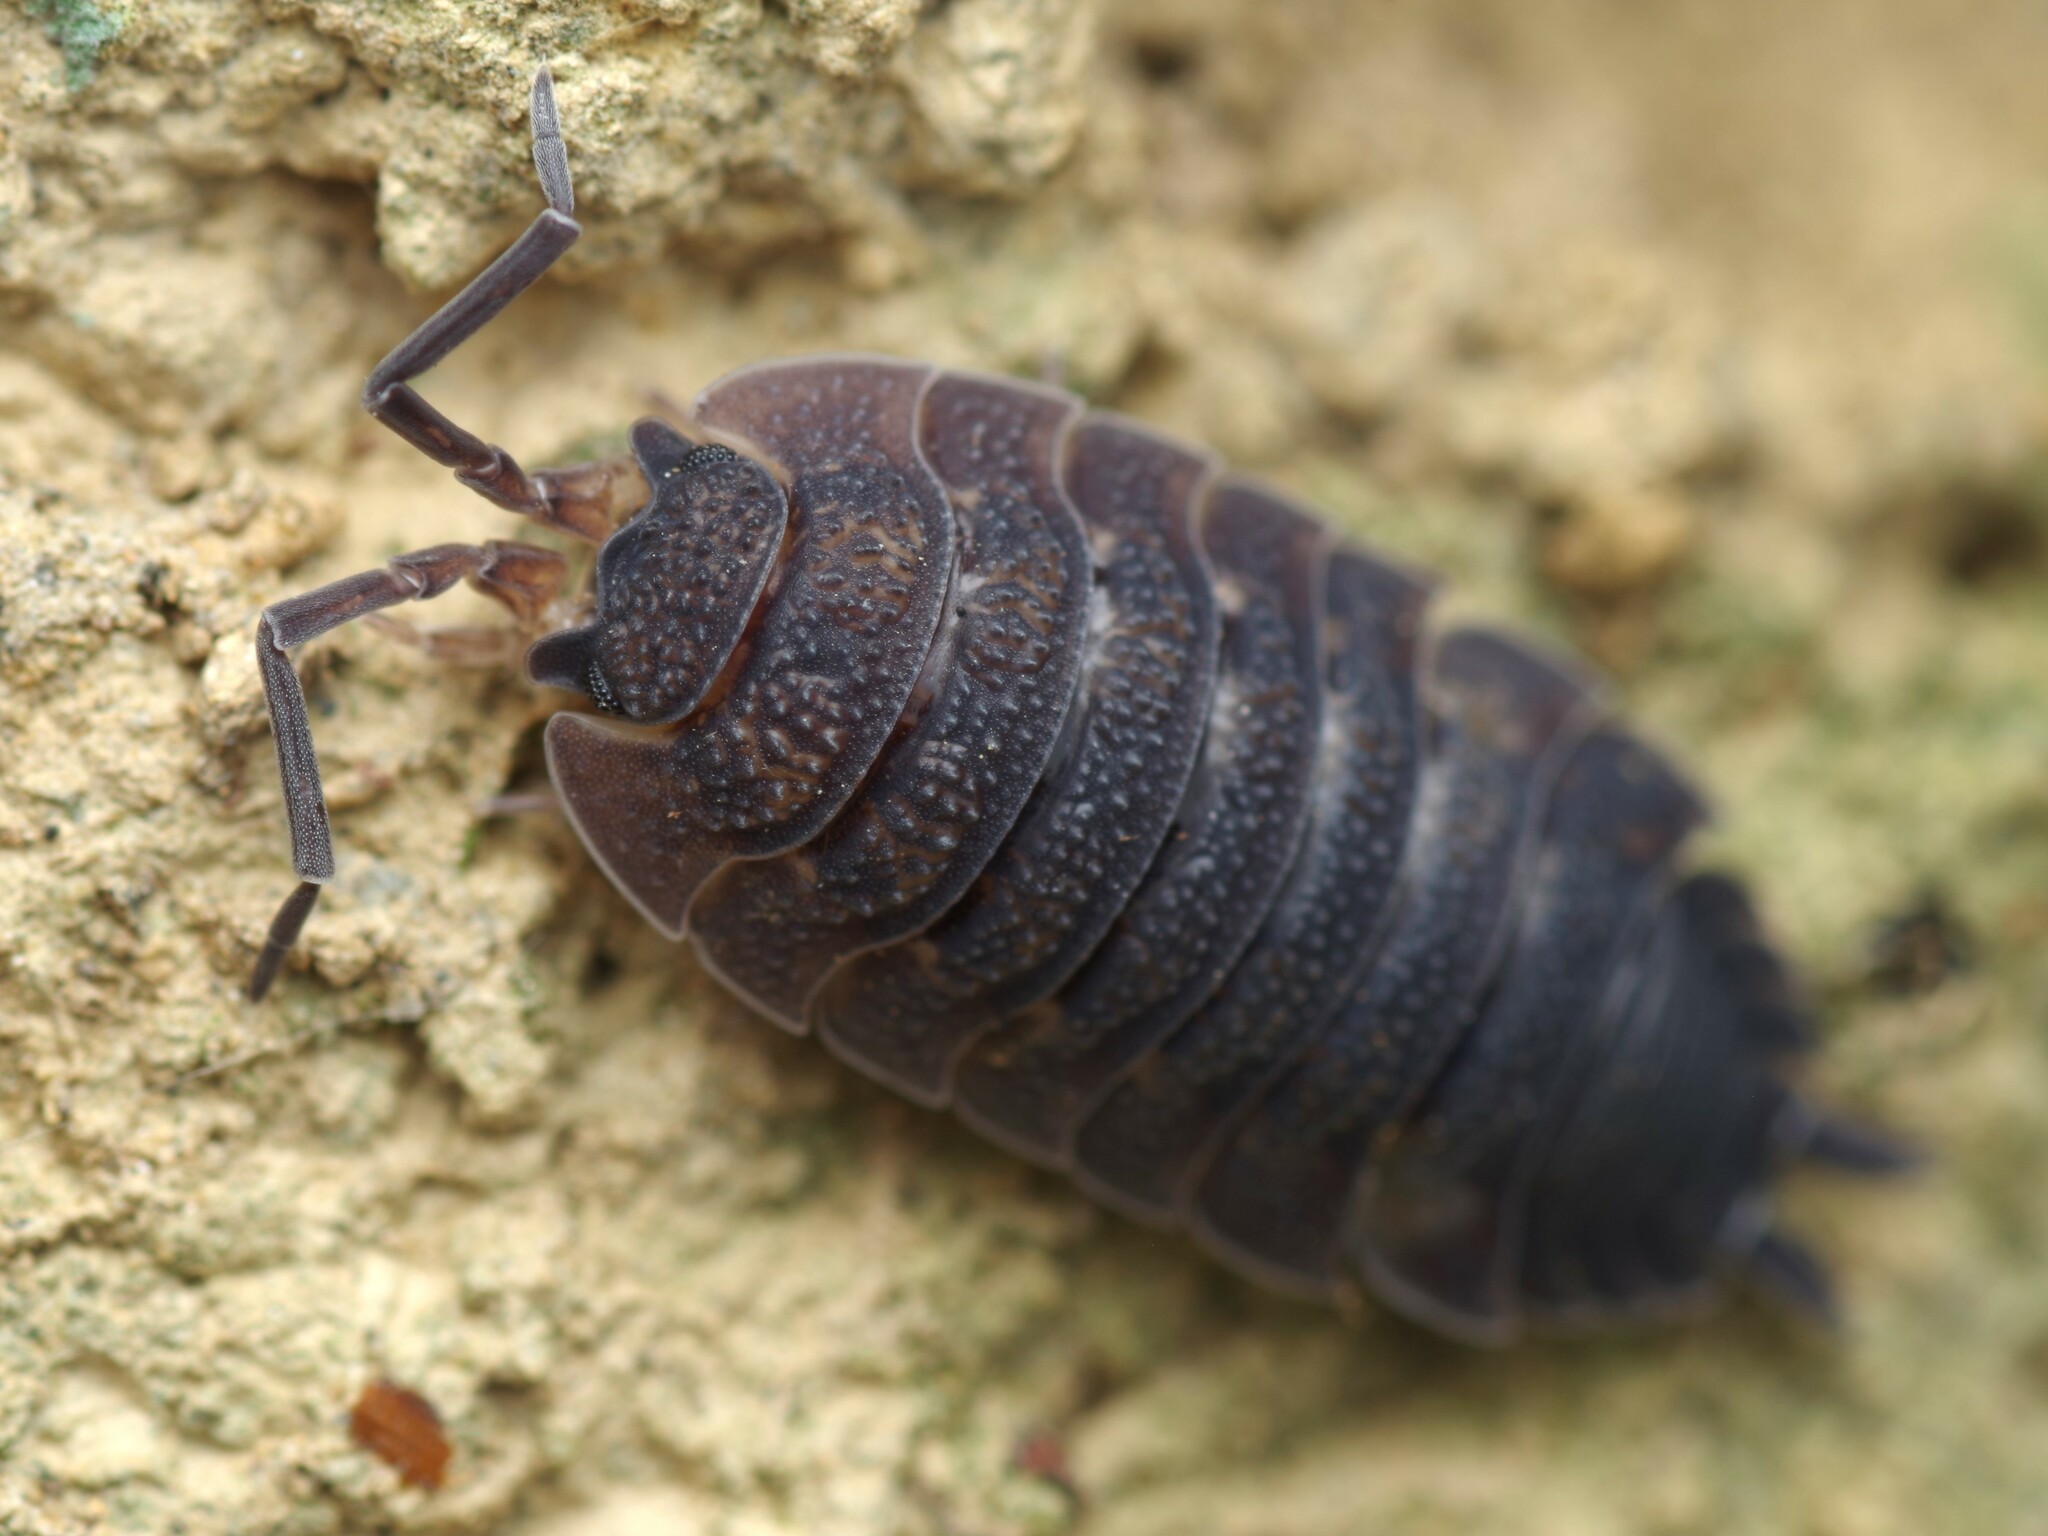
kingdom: Animalia
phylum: Arthropoda
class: Malacostraca
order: Isopoda
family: Porcellionidae
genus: Porcellio
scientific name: Porcellio scaber
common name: Common rough woodlouse
